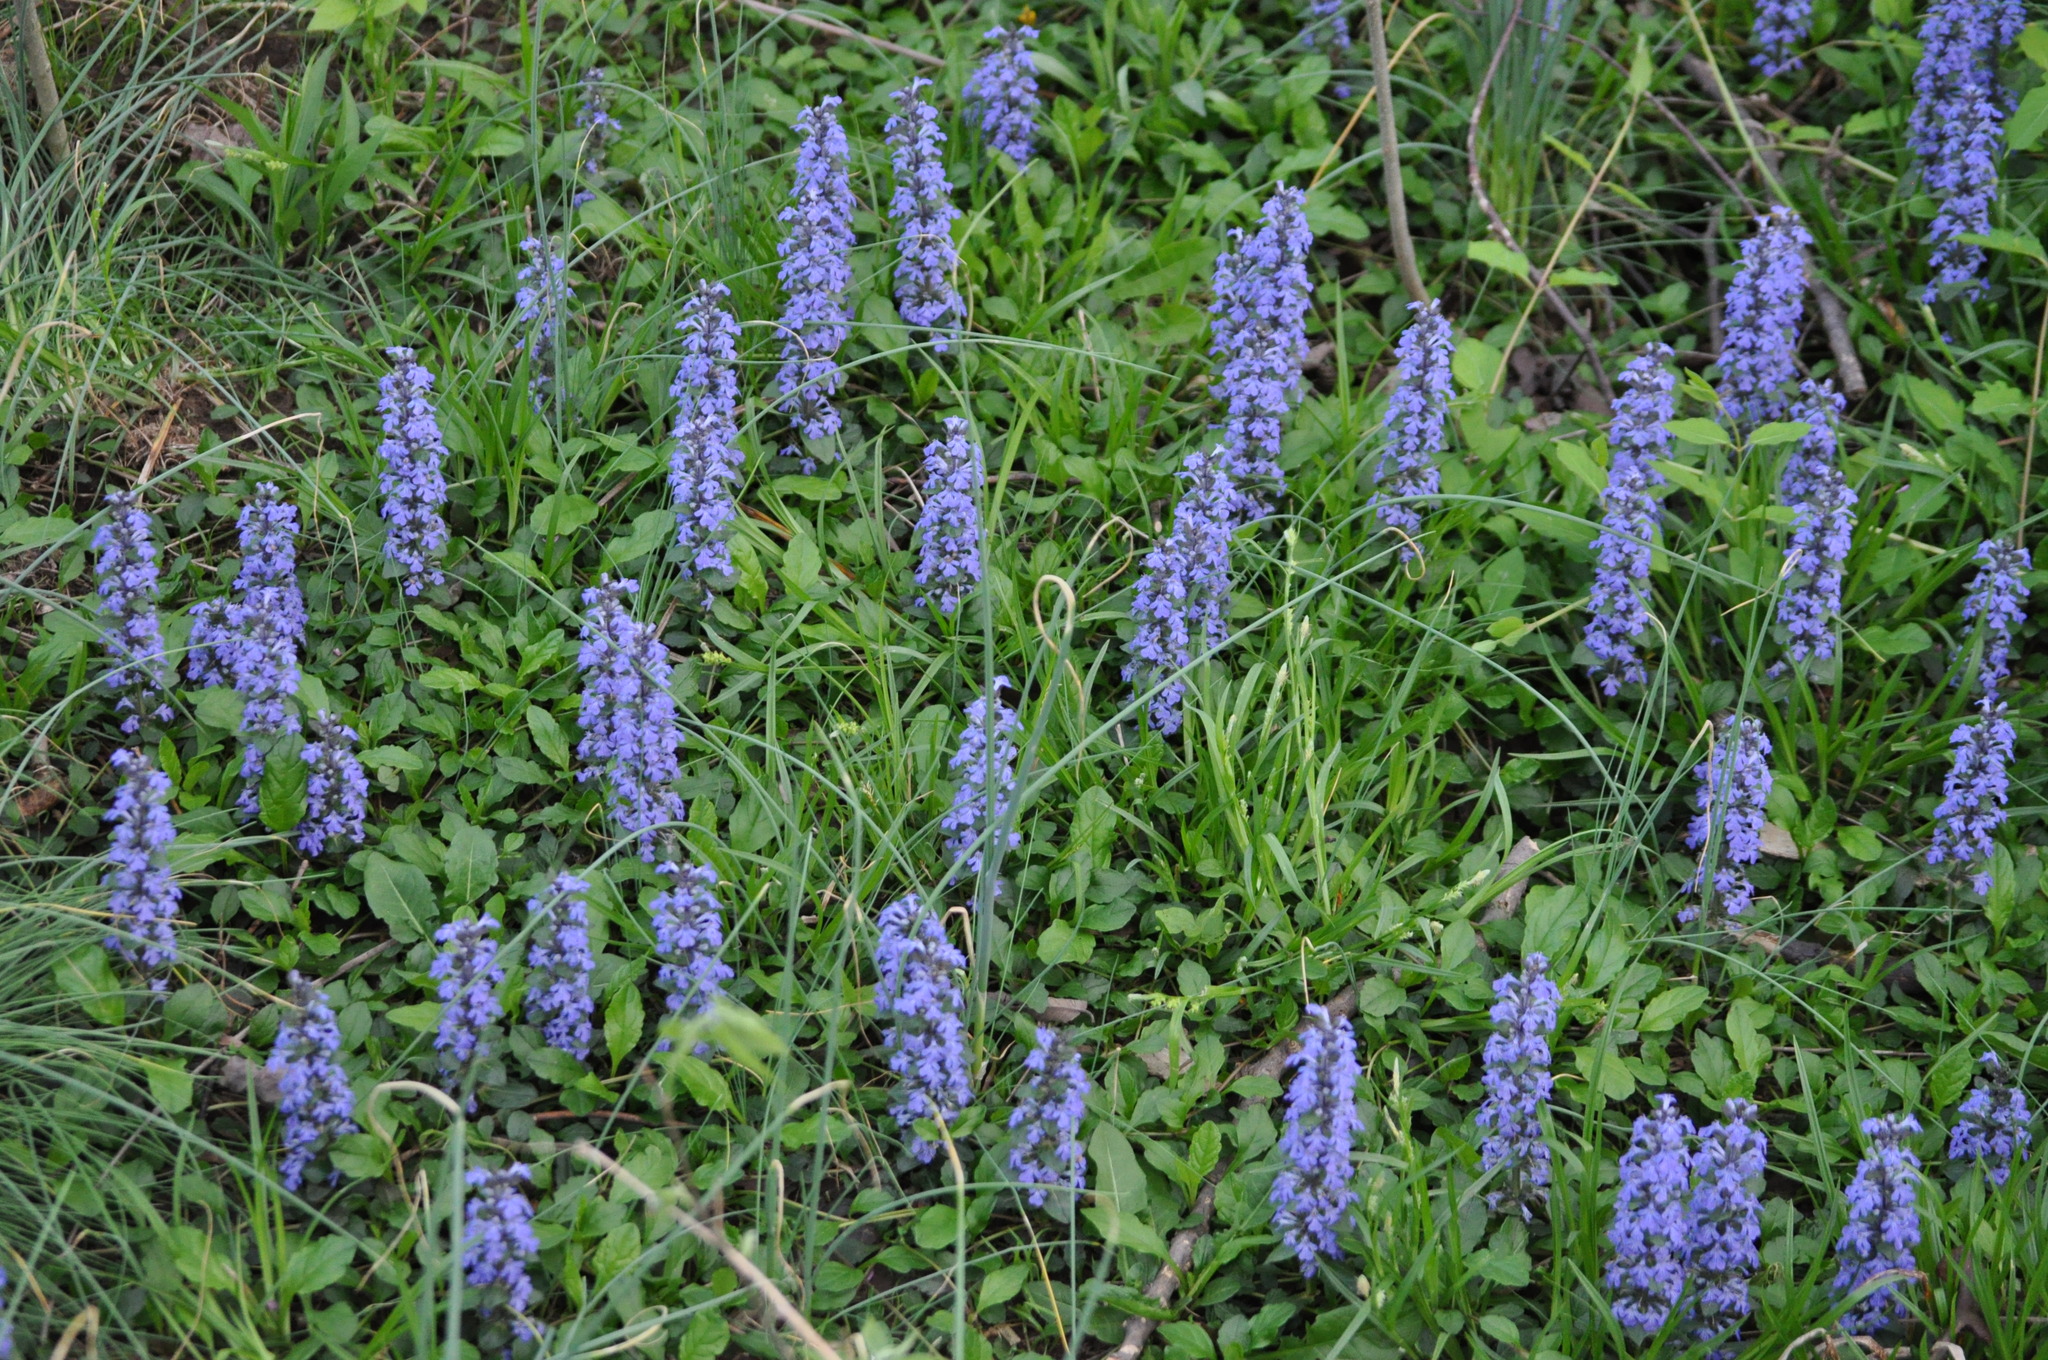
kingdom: Plantae
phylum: Tracheophyta
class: Magnoliopsida
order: Lamiales
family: Lamiaceae
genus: Ajuga
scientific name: Ajuga reptans
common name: Bugle
